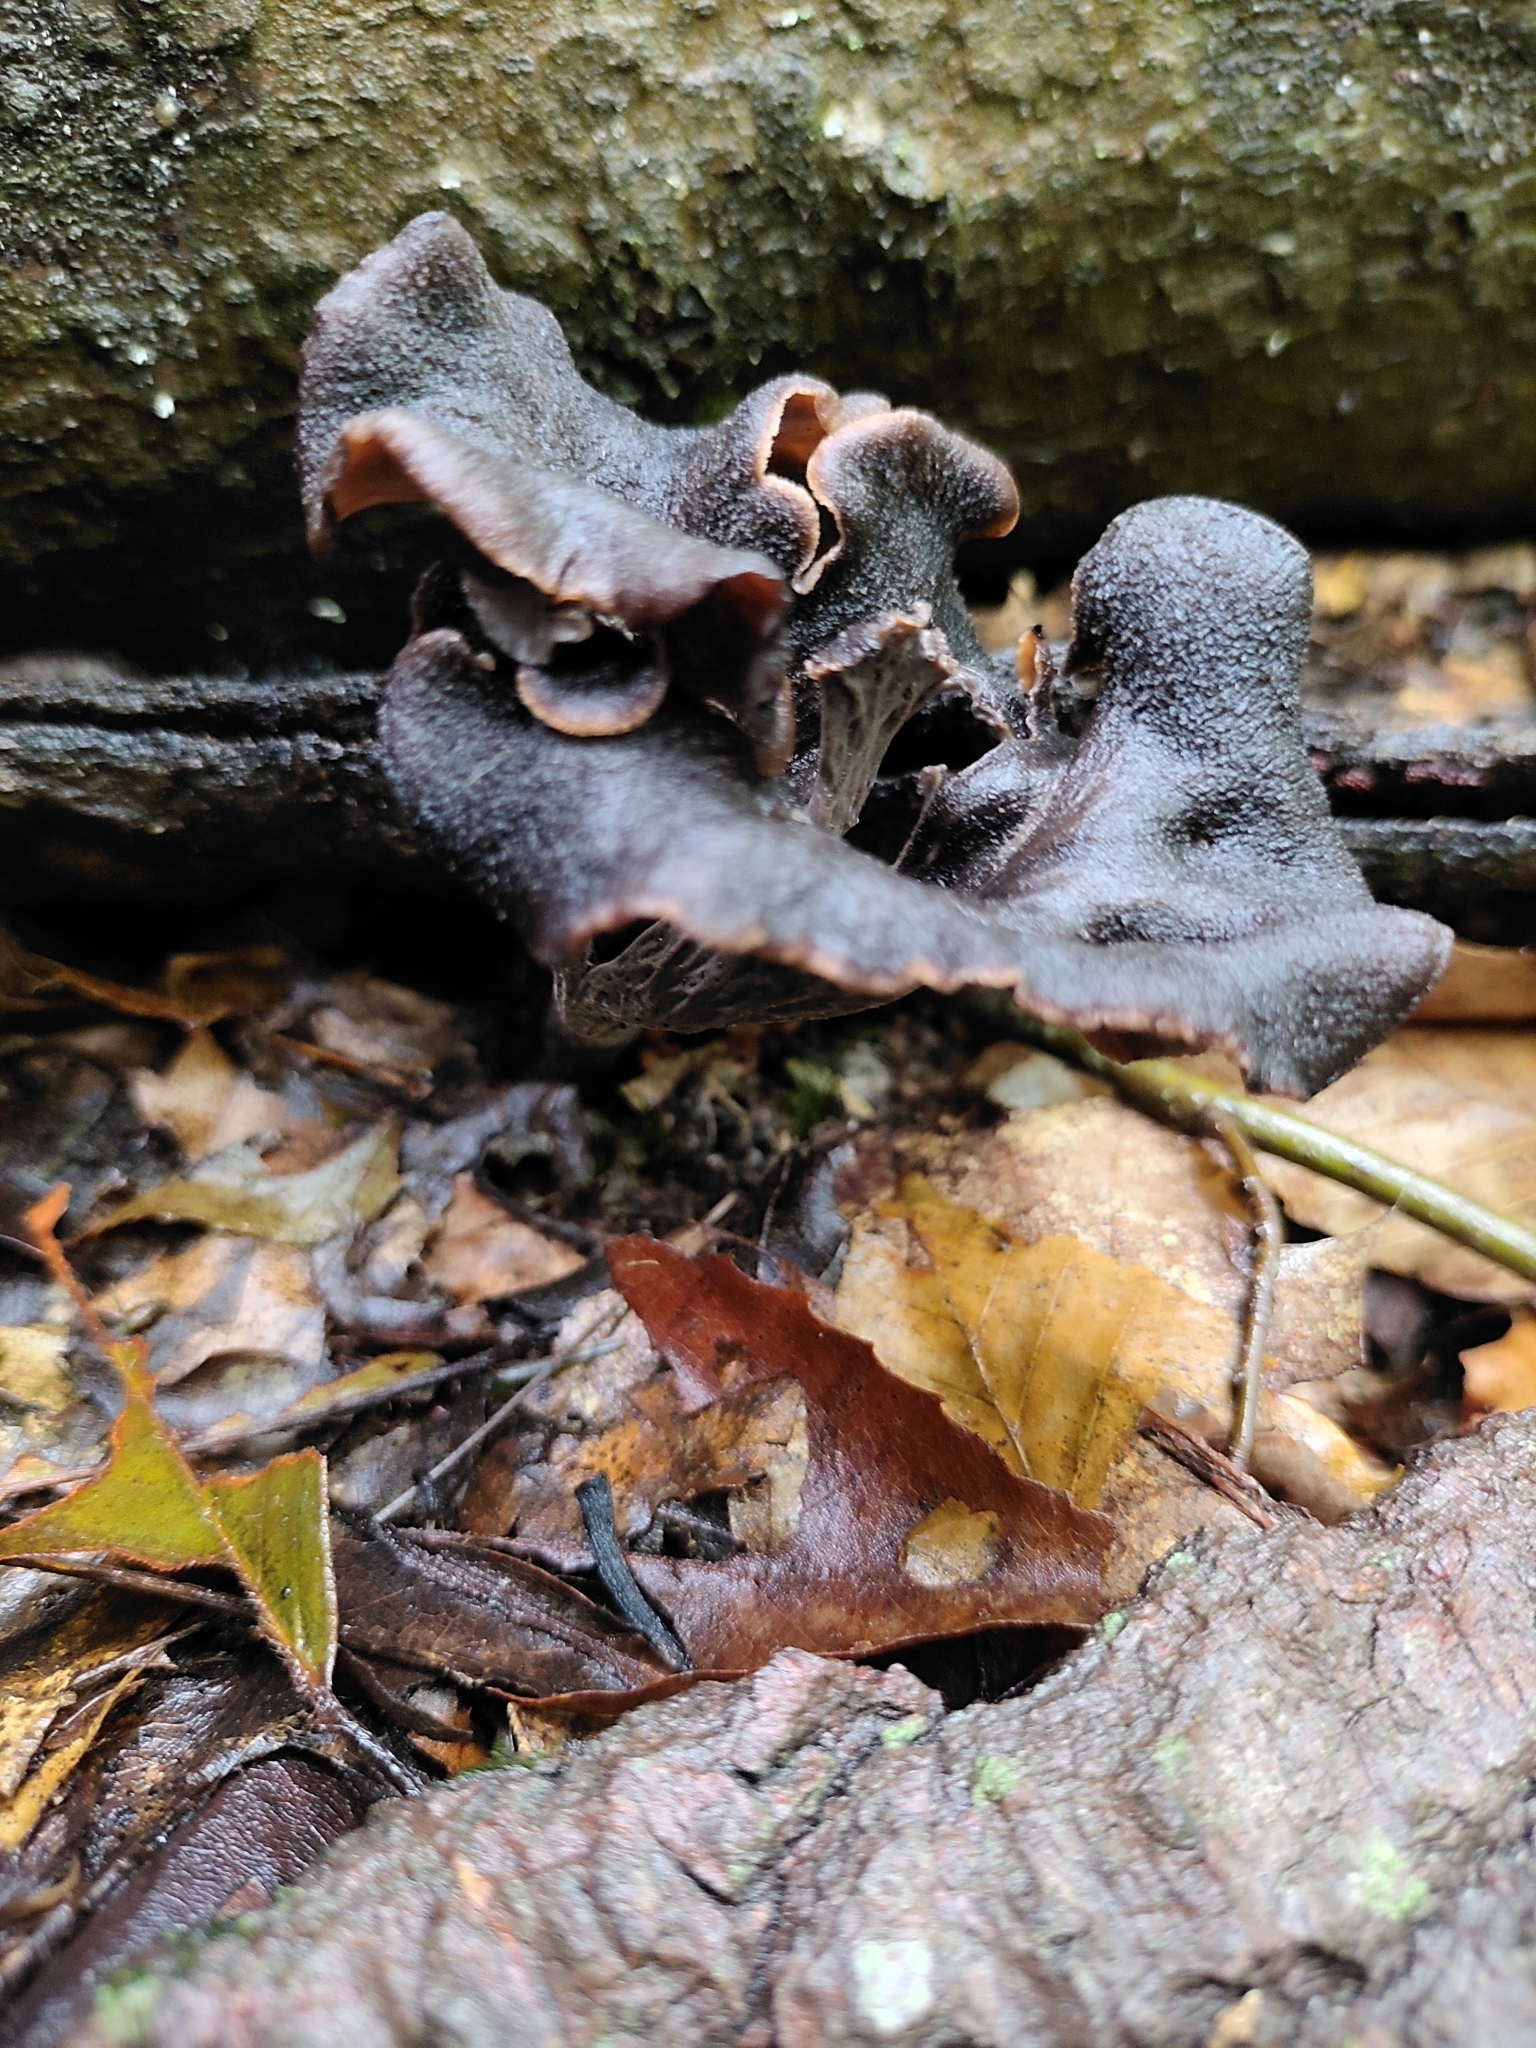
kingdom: Fungi
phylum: Basidiomycota
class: Agaricomycetes
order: Cantharellales
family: Hydnaceae
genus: Craterellus
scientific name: Craterellus cornucopioides
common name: Horn of plenty
